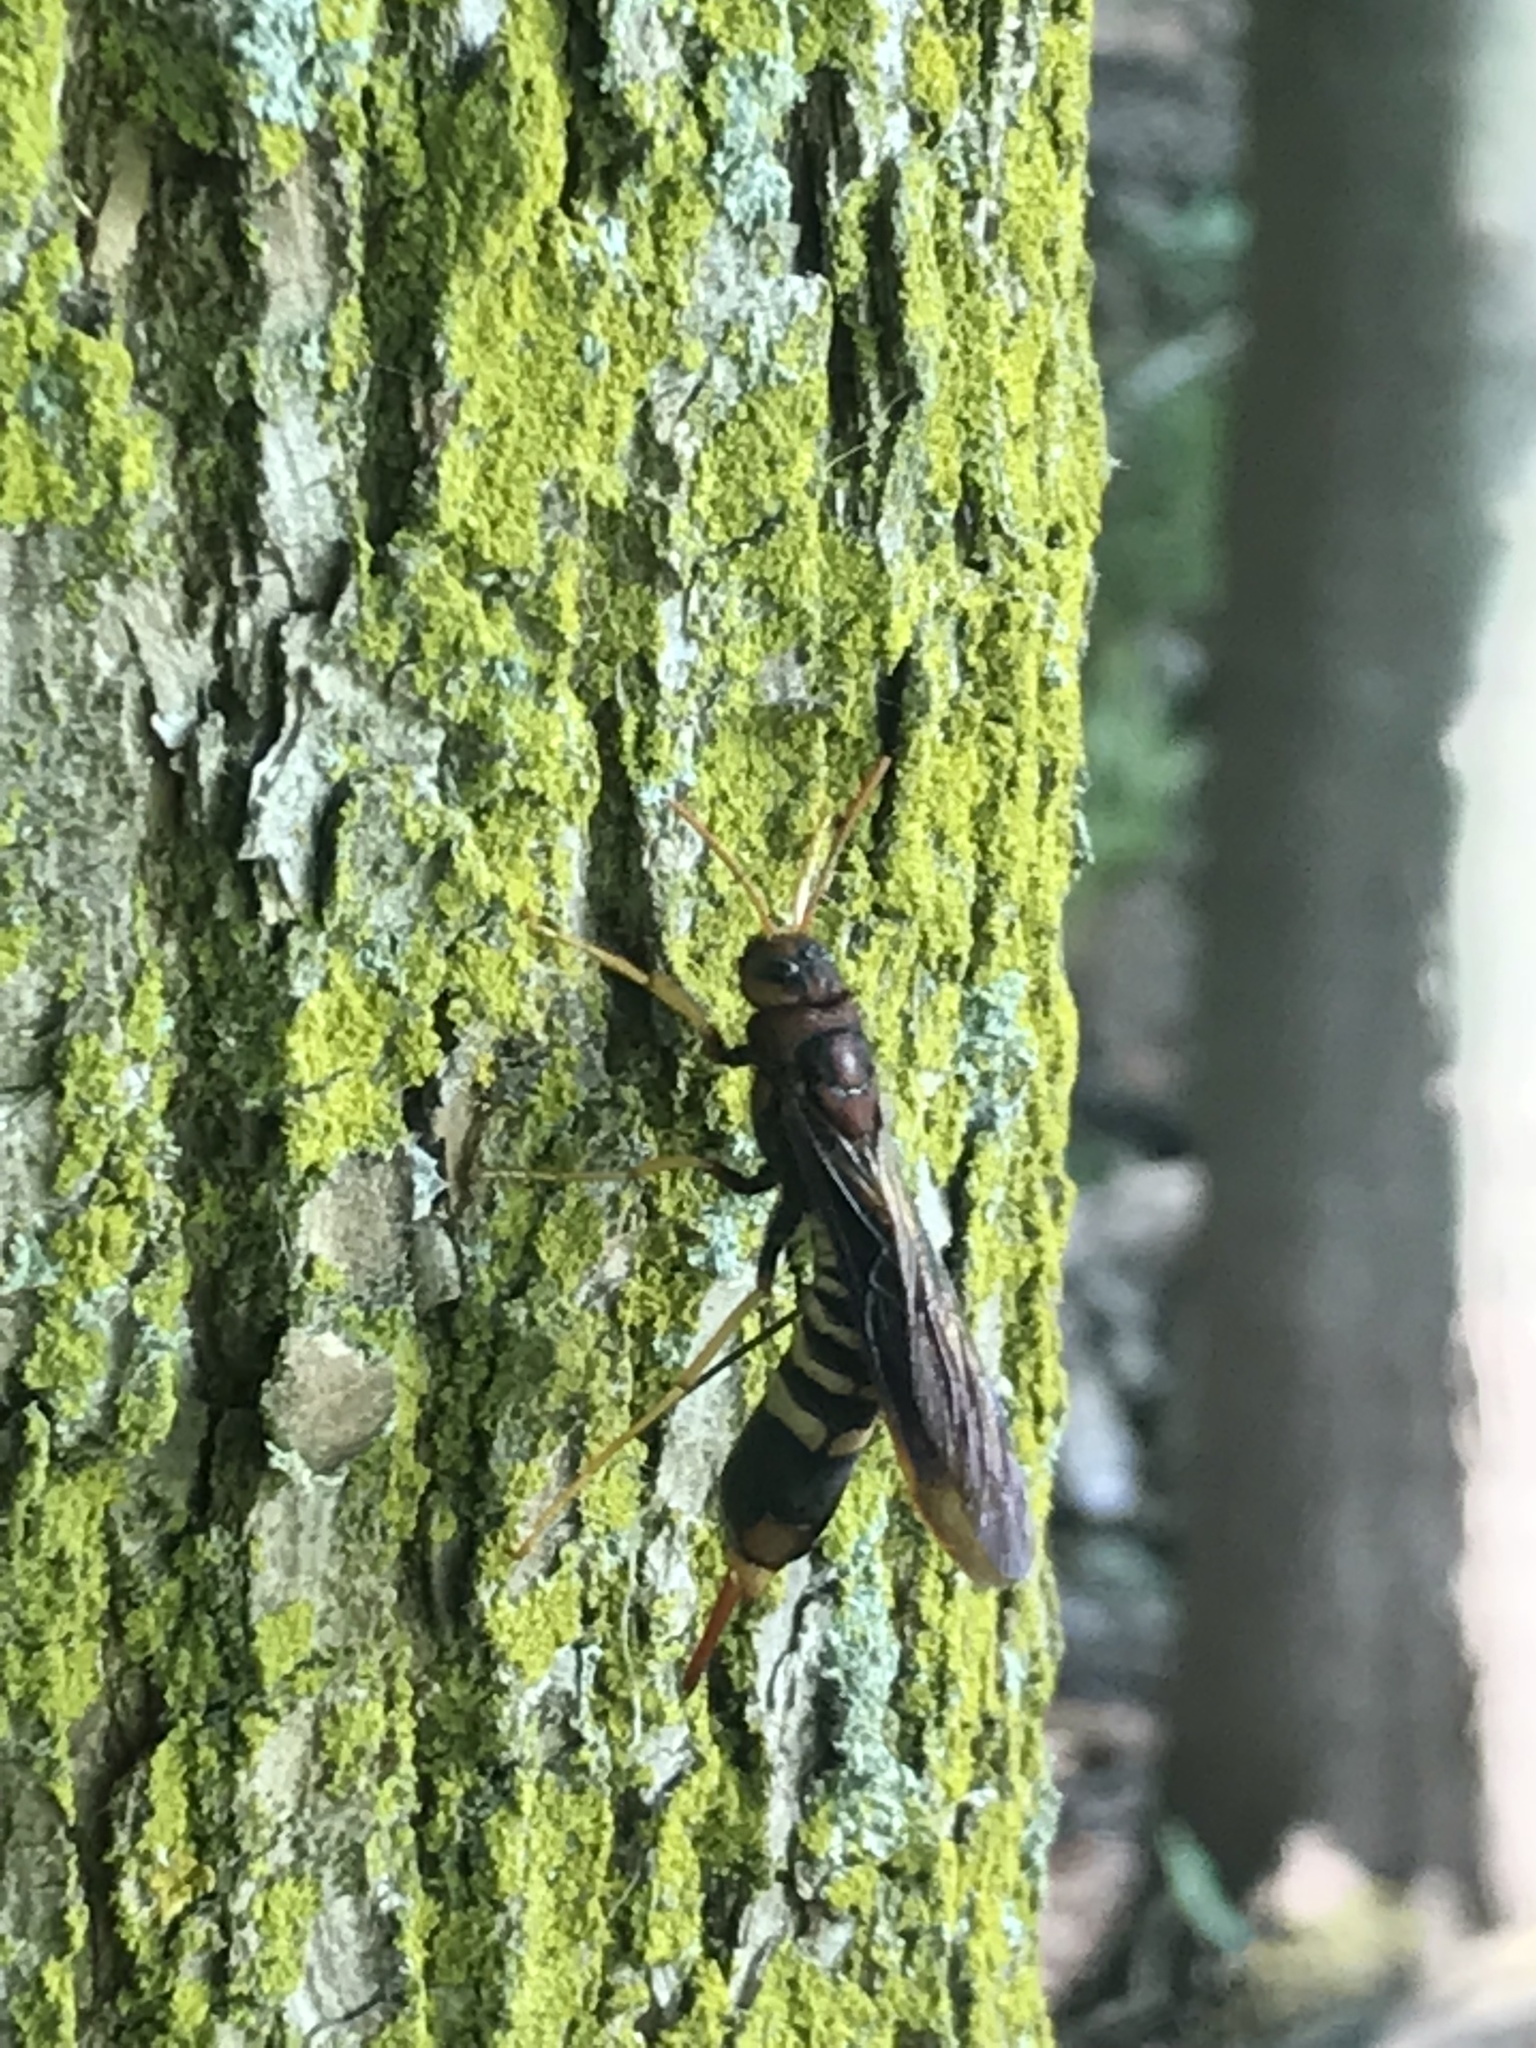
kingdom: Animalia
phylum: Arthropoda
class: Insecta
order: Hymenoptera
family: Siricidae
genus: Tremex
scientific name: Tremex columba
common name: Wasp
